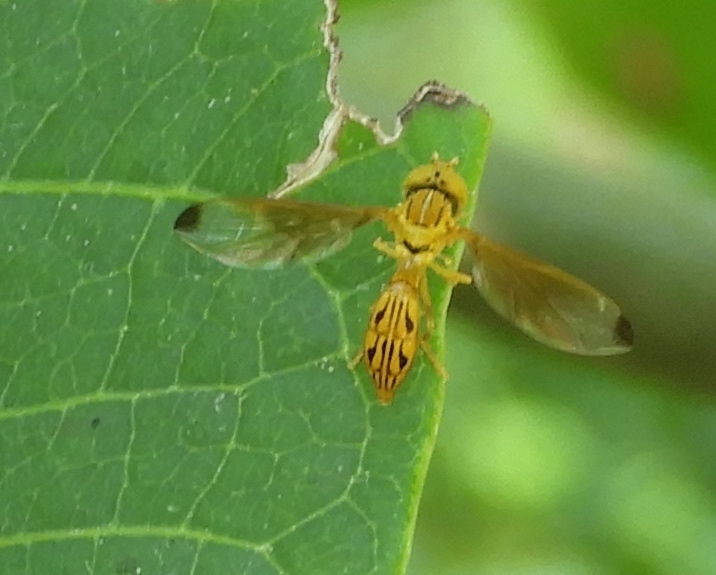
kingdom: Animalia
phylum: Arthropoda
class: Insecta
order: Diptera
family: Syrphidae
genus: Hybobathus
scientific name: Hybobathus
